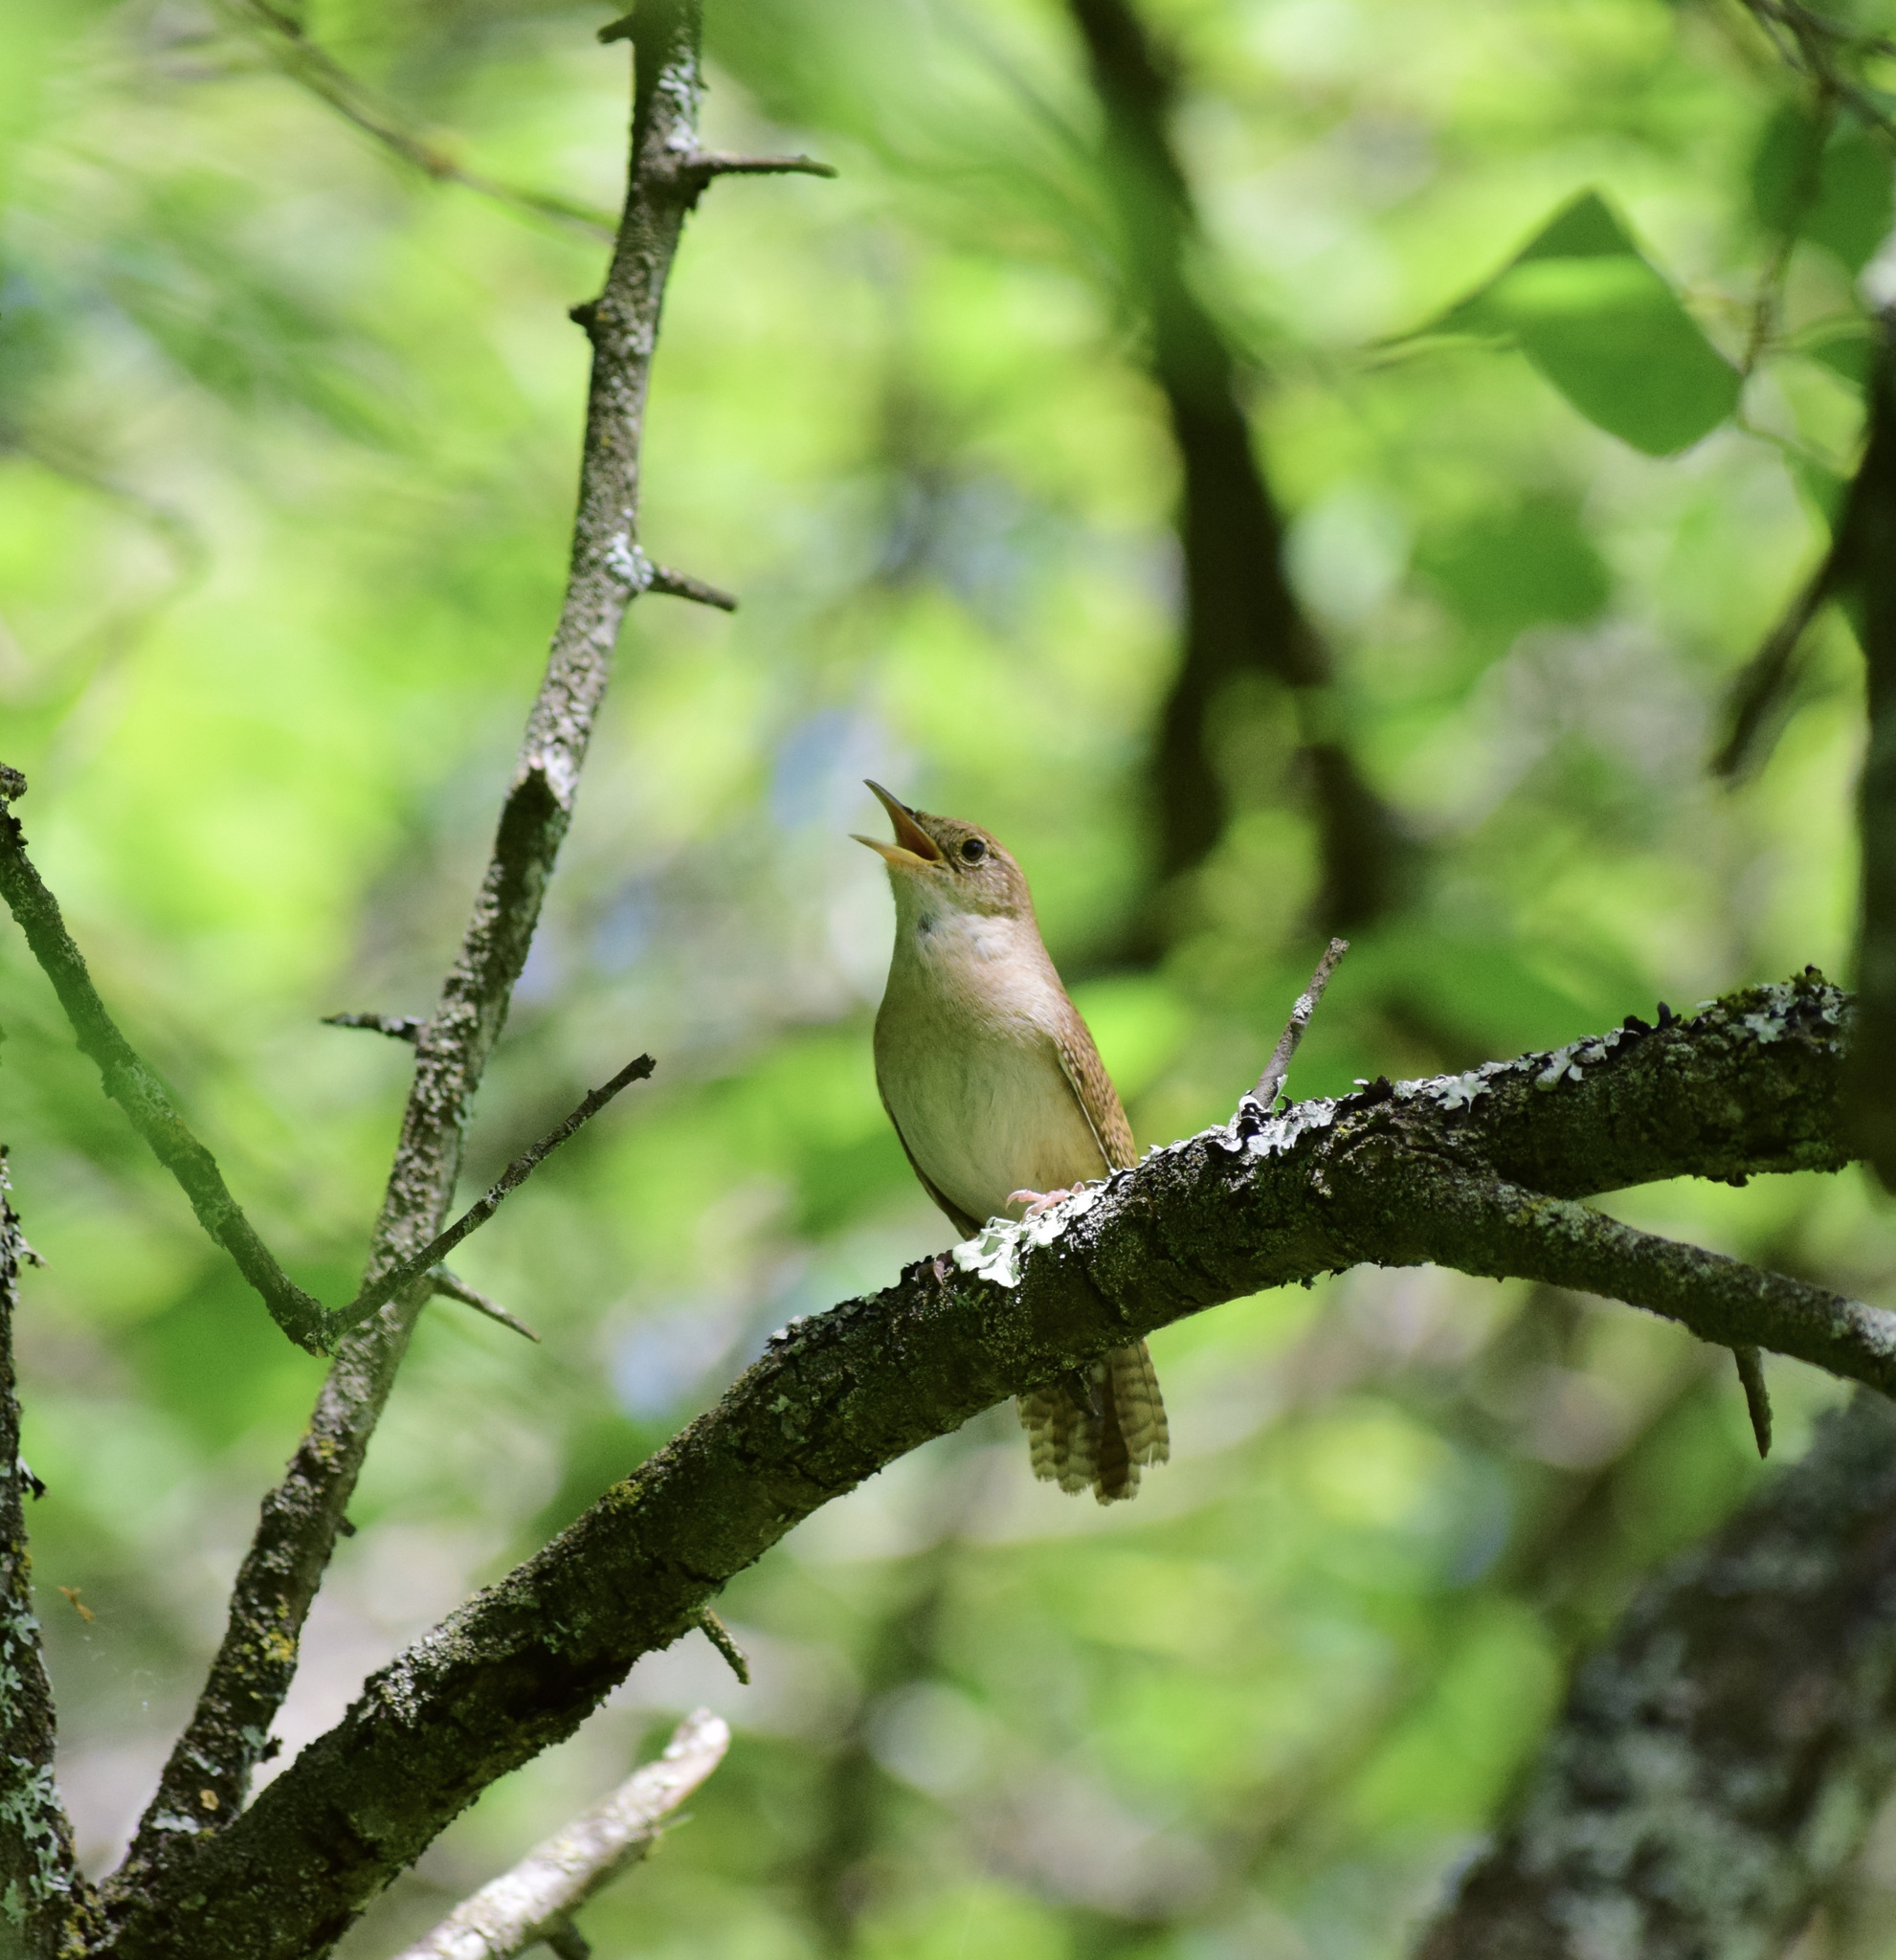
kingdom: Animalia
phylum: Chordata
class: Aves
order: Passeriformes
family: Troglodytidae
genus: Troglodytes
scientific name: Troglodytes aedon
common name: House wren
